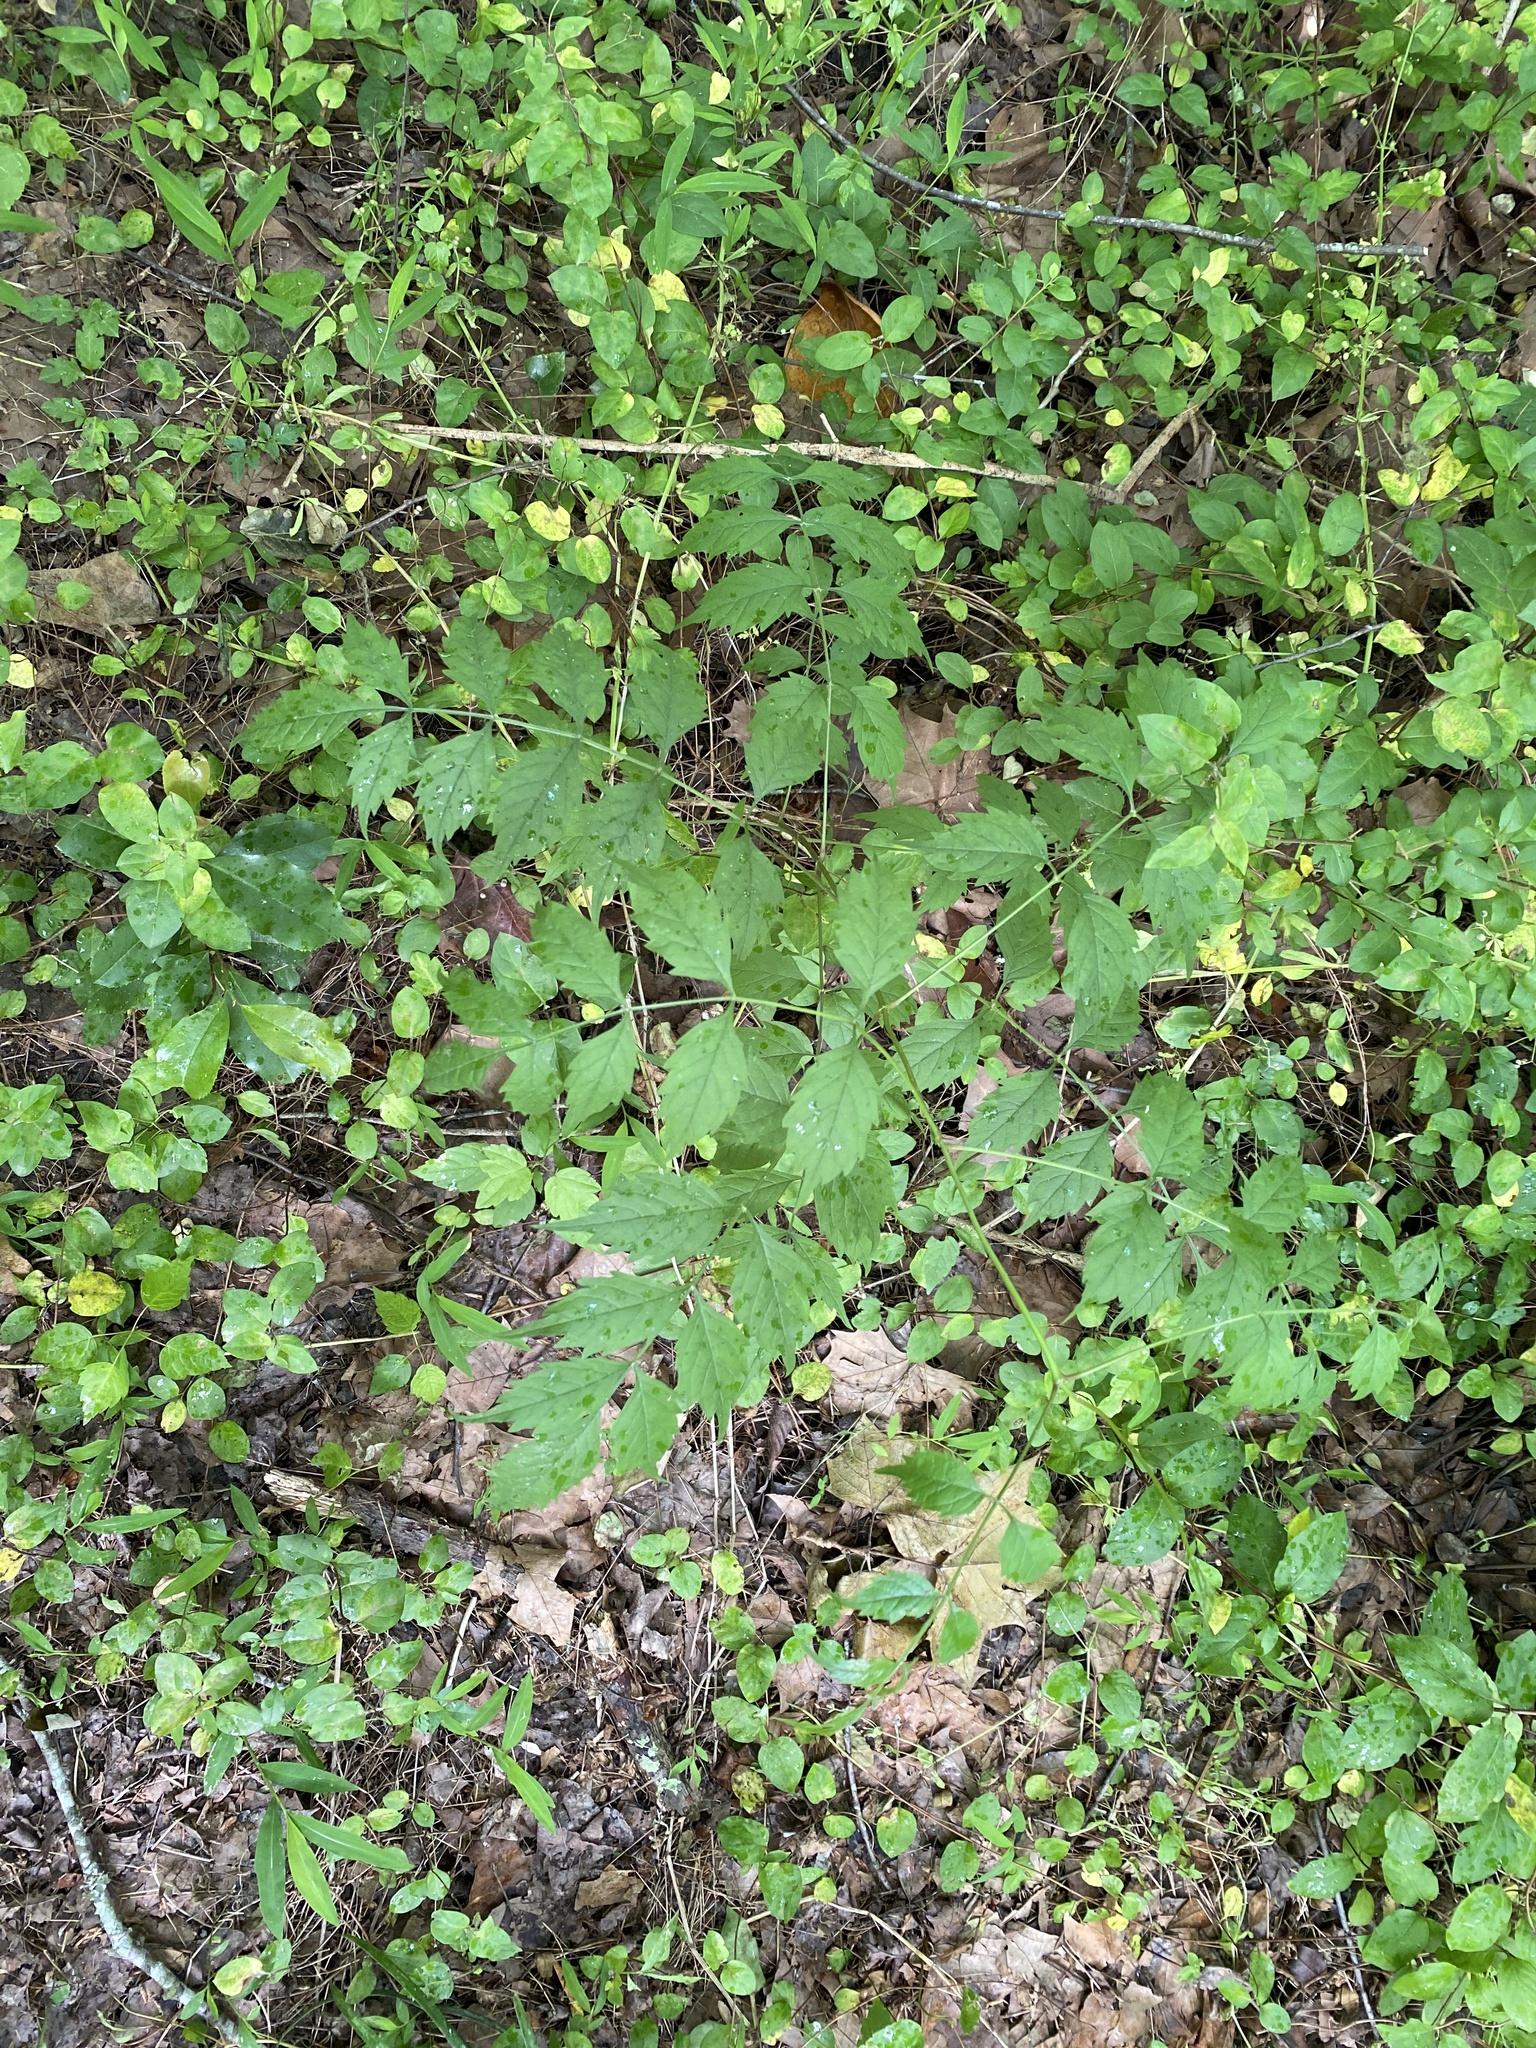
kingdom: Plantae
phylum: Tracheophyta
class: Magnoliopsida
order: Lamiales
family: Bignoniaceae
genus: Campsis
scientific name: Campsis radicans
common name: Trumpet-creeper
